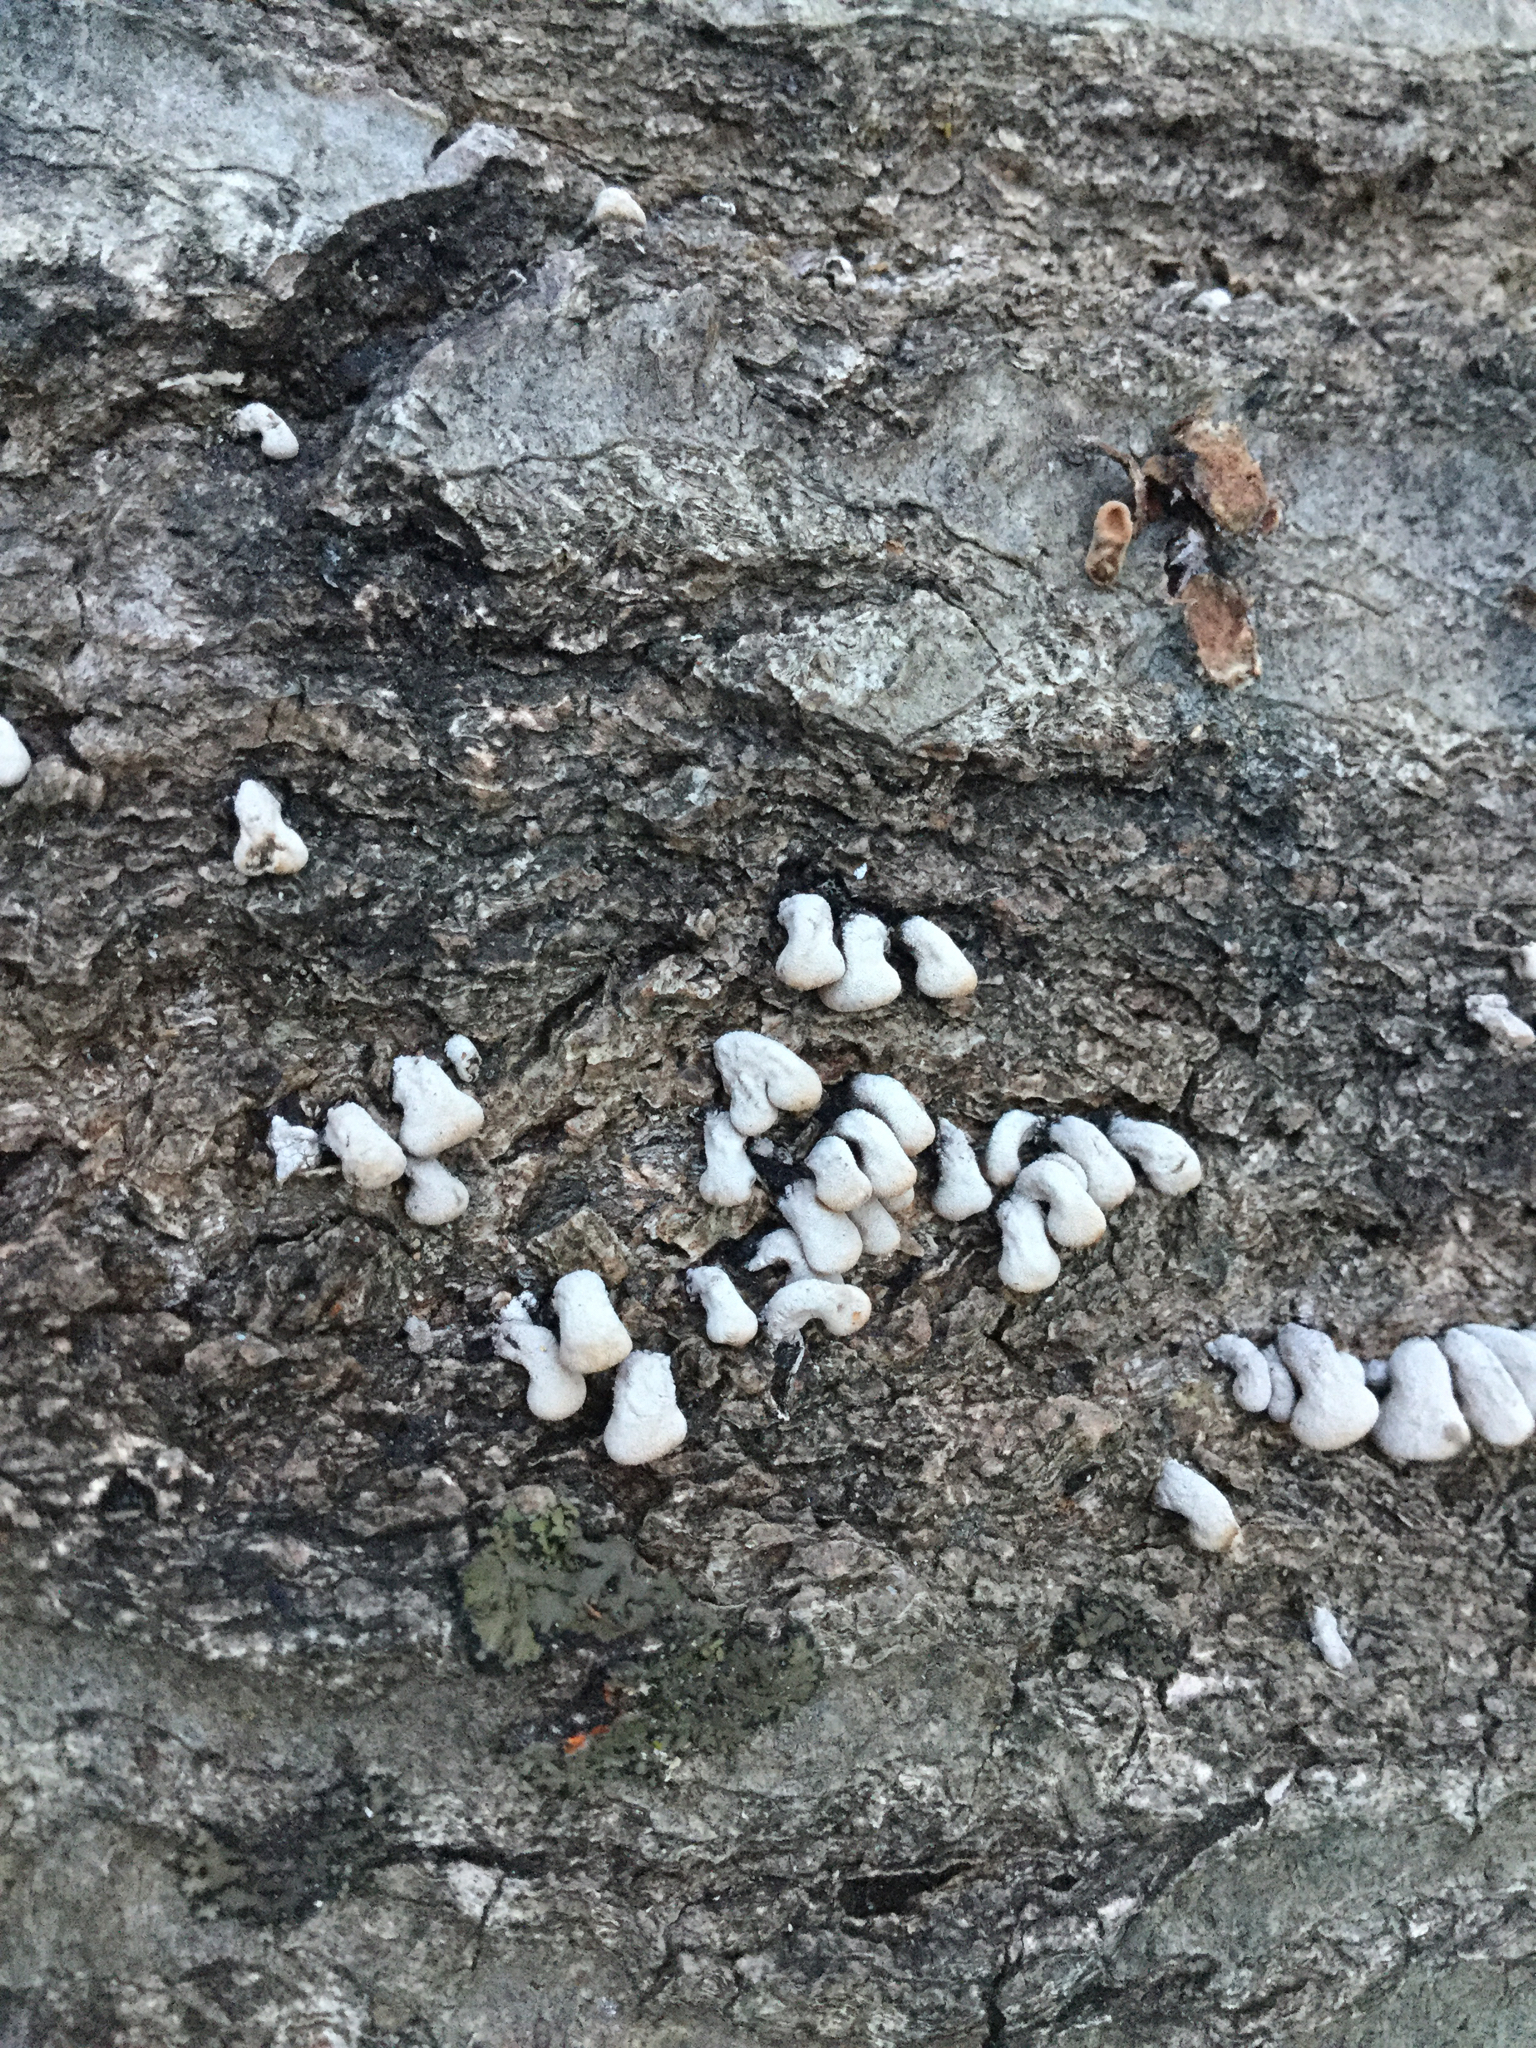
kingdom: Fungi
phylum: Basidiomycota
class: Agaricomycetes
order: Agaricales
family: Schizophyllaceae
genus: Porodisculus
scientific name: Porodisculus pendulus
